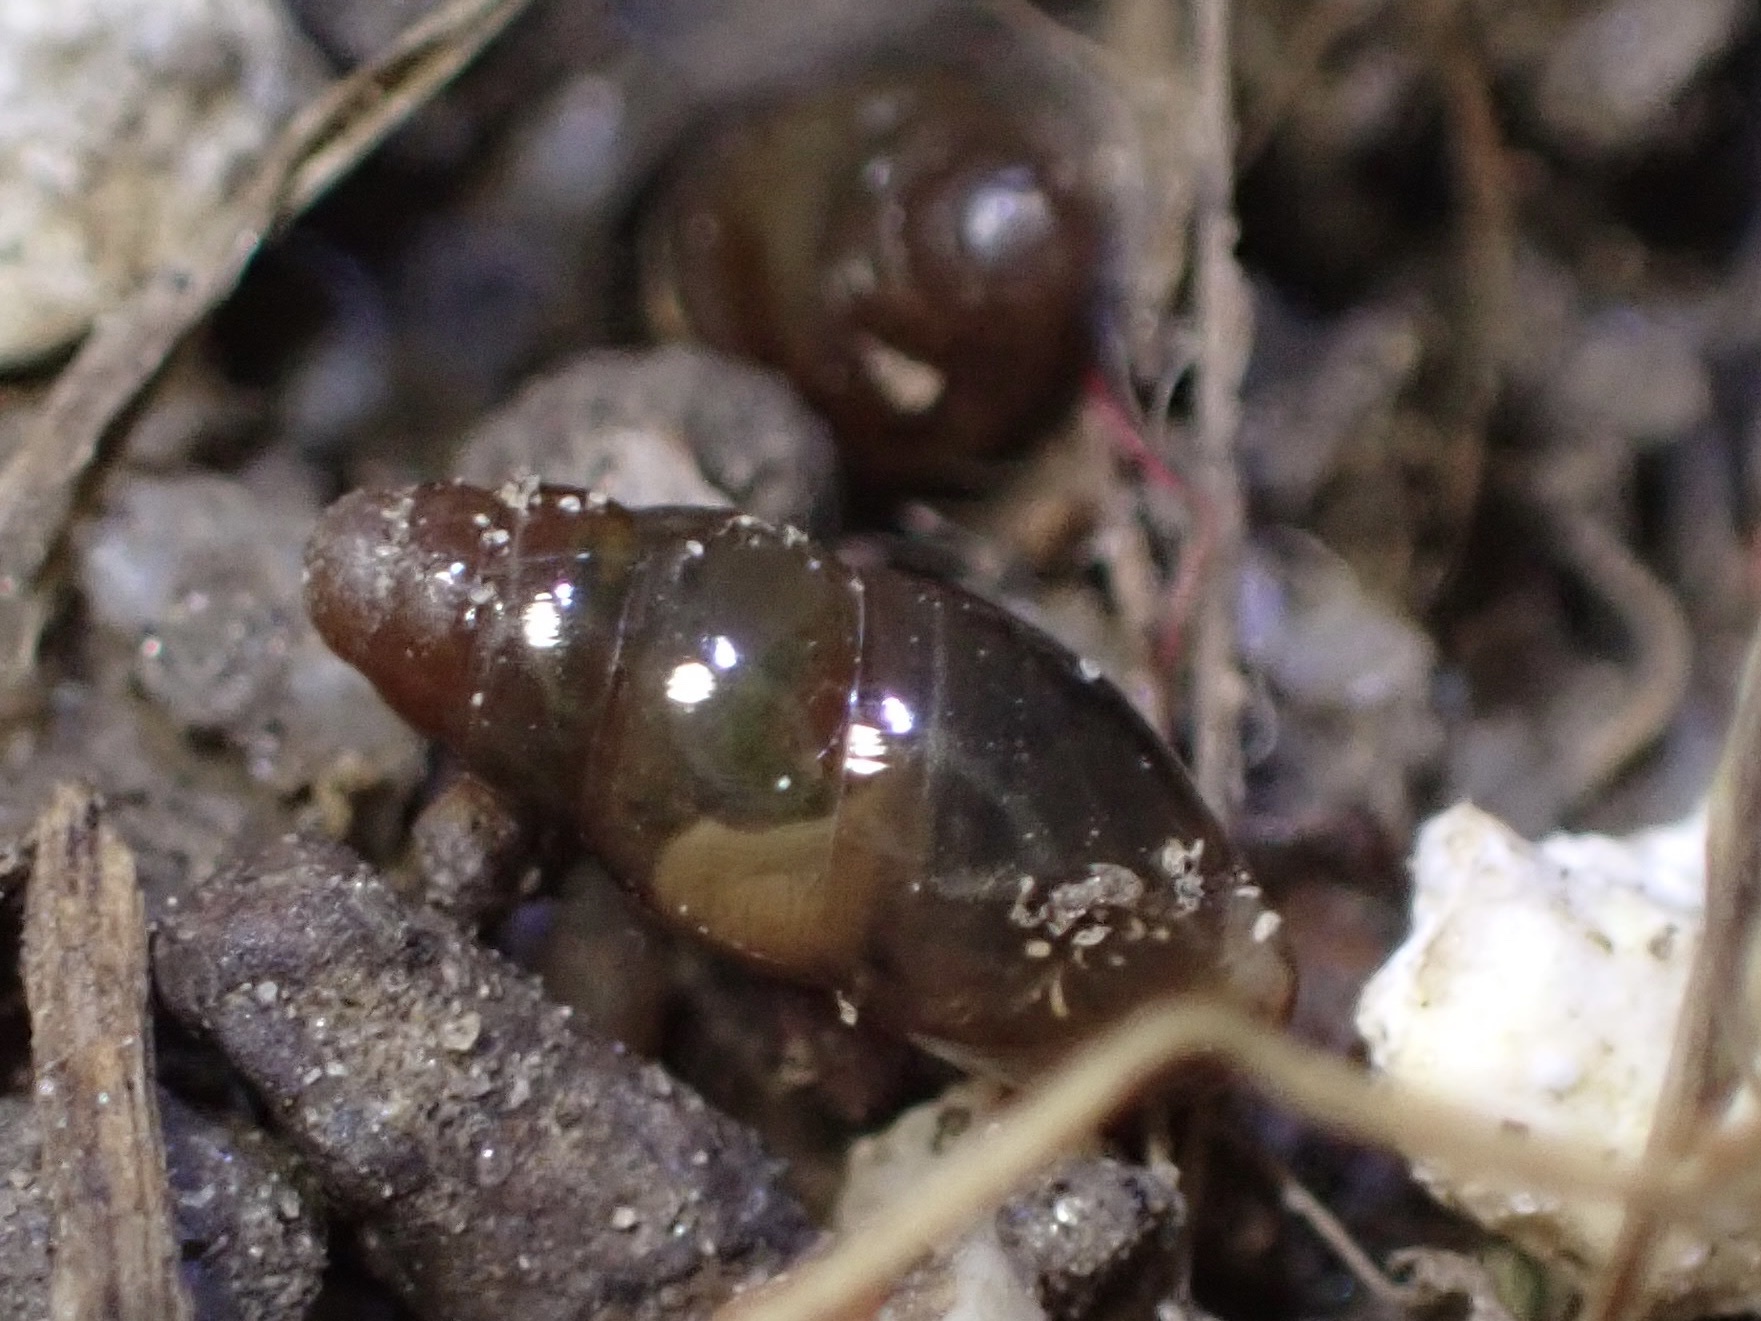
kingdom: Animalia
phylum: Mollusca
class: Gastropoda
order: Stylommatophora
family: Cochlicopidae
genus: Cochlicopa
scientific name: Cochlicopa lubrica
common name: Glossy pillar snail
